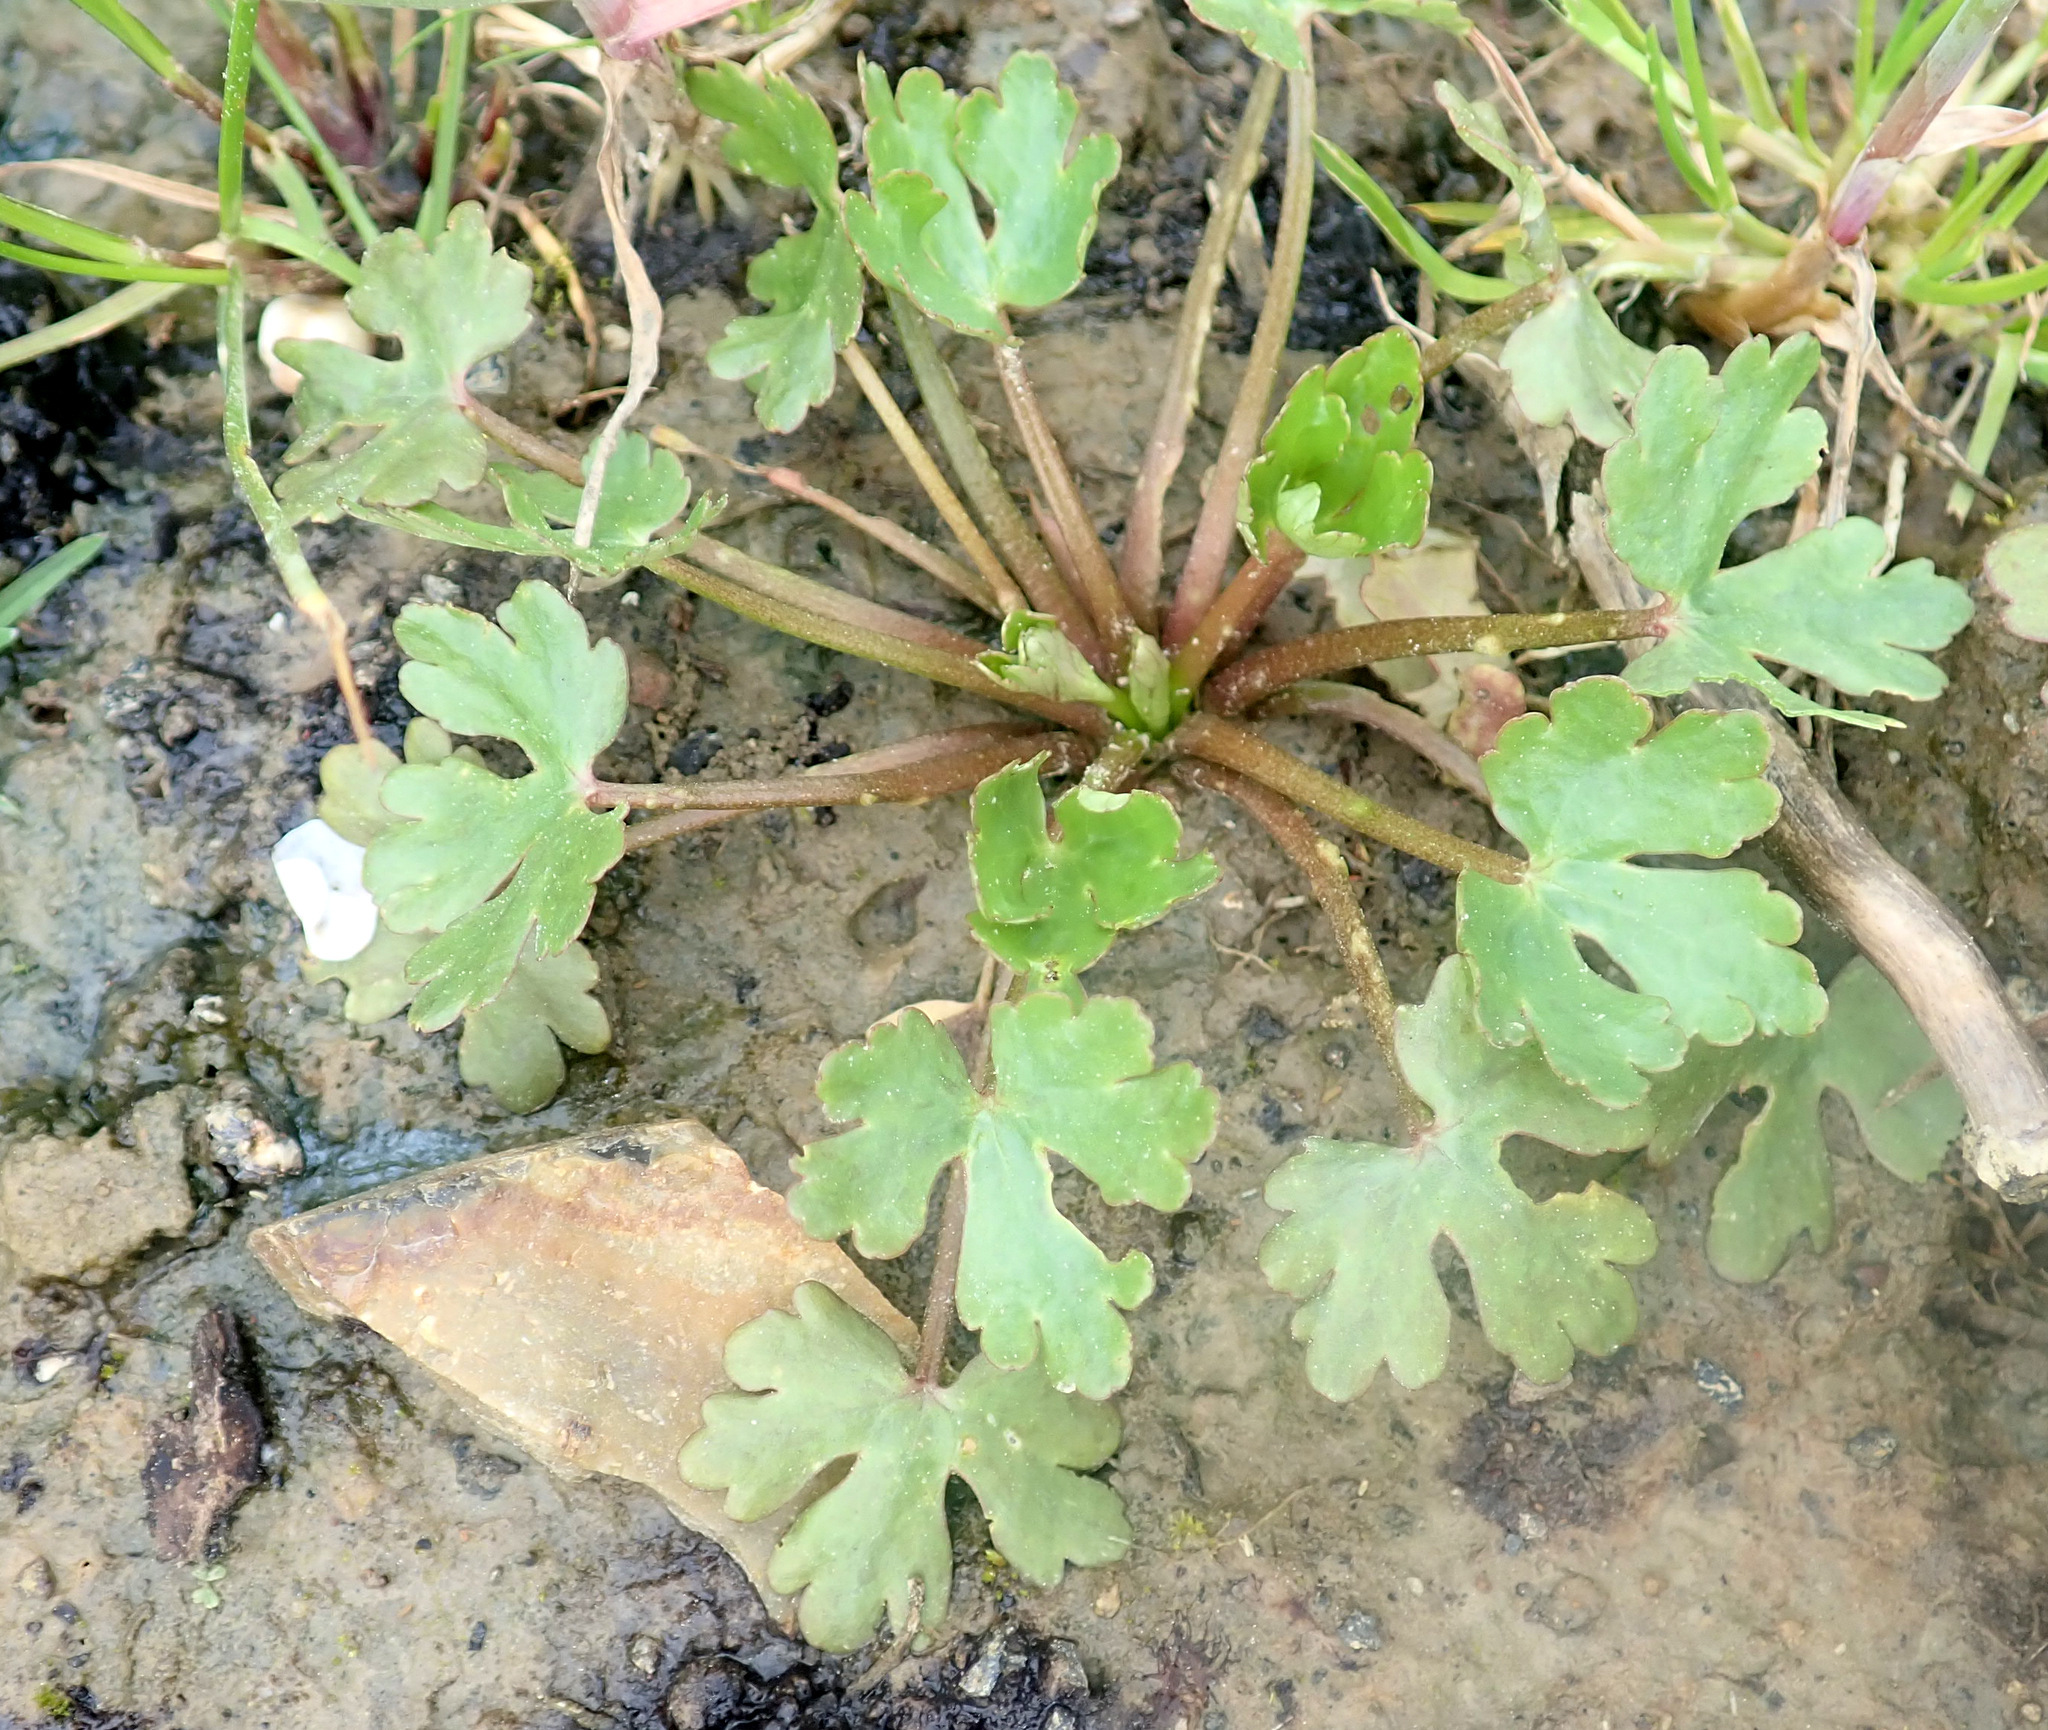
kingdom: Plantae
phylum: Tracheophyta
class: Magnoliopsida
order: Ranunculales
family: Ranunculaceae
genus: Ranunculus
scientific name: Ranunculus sceleratus
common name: Celery-leaved buttercup
